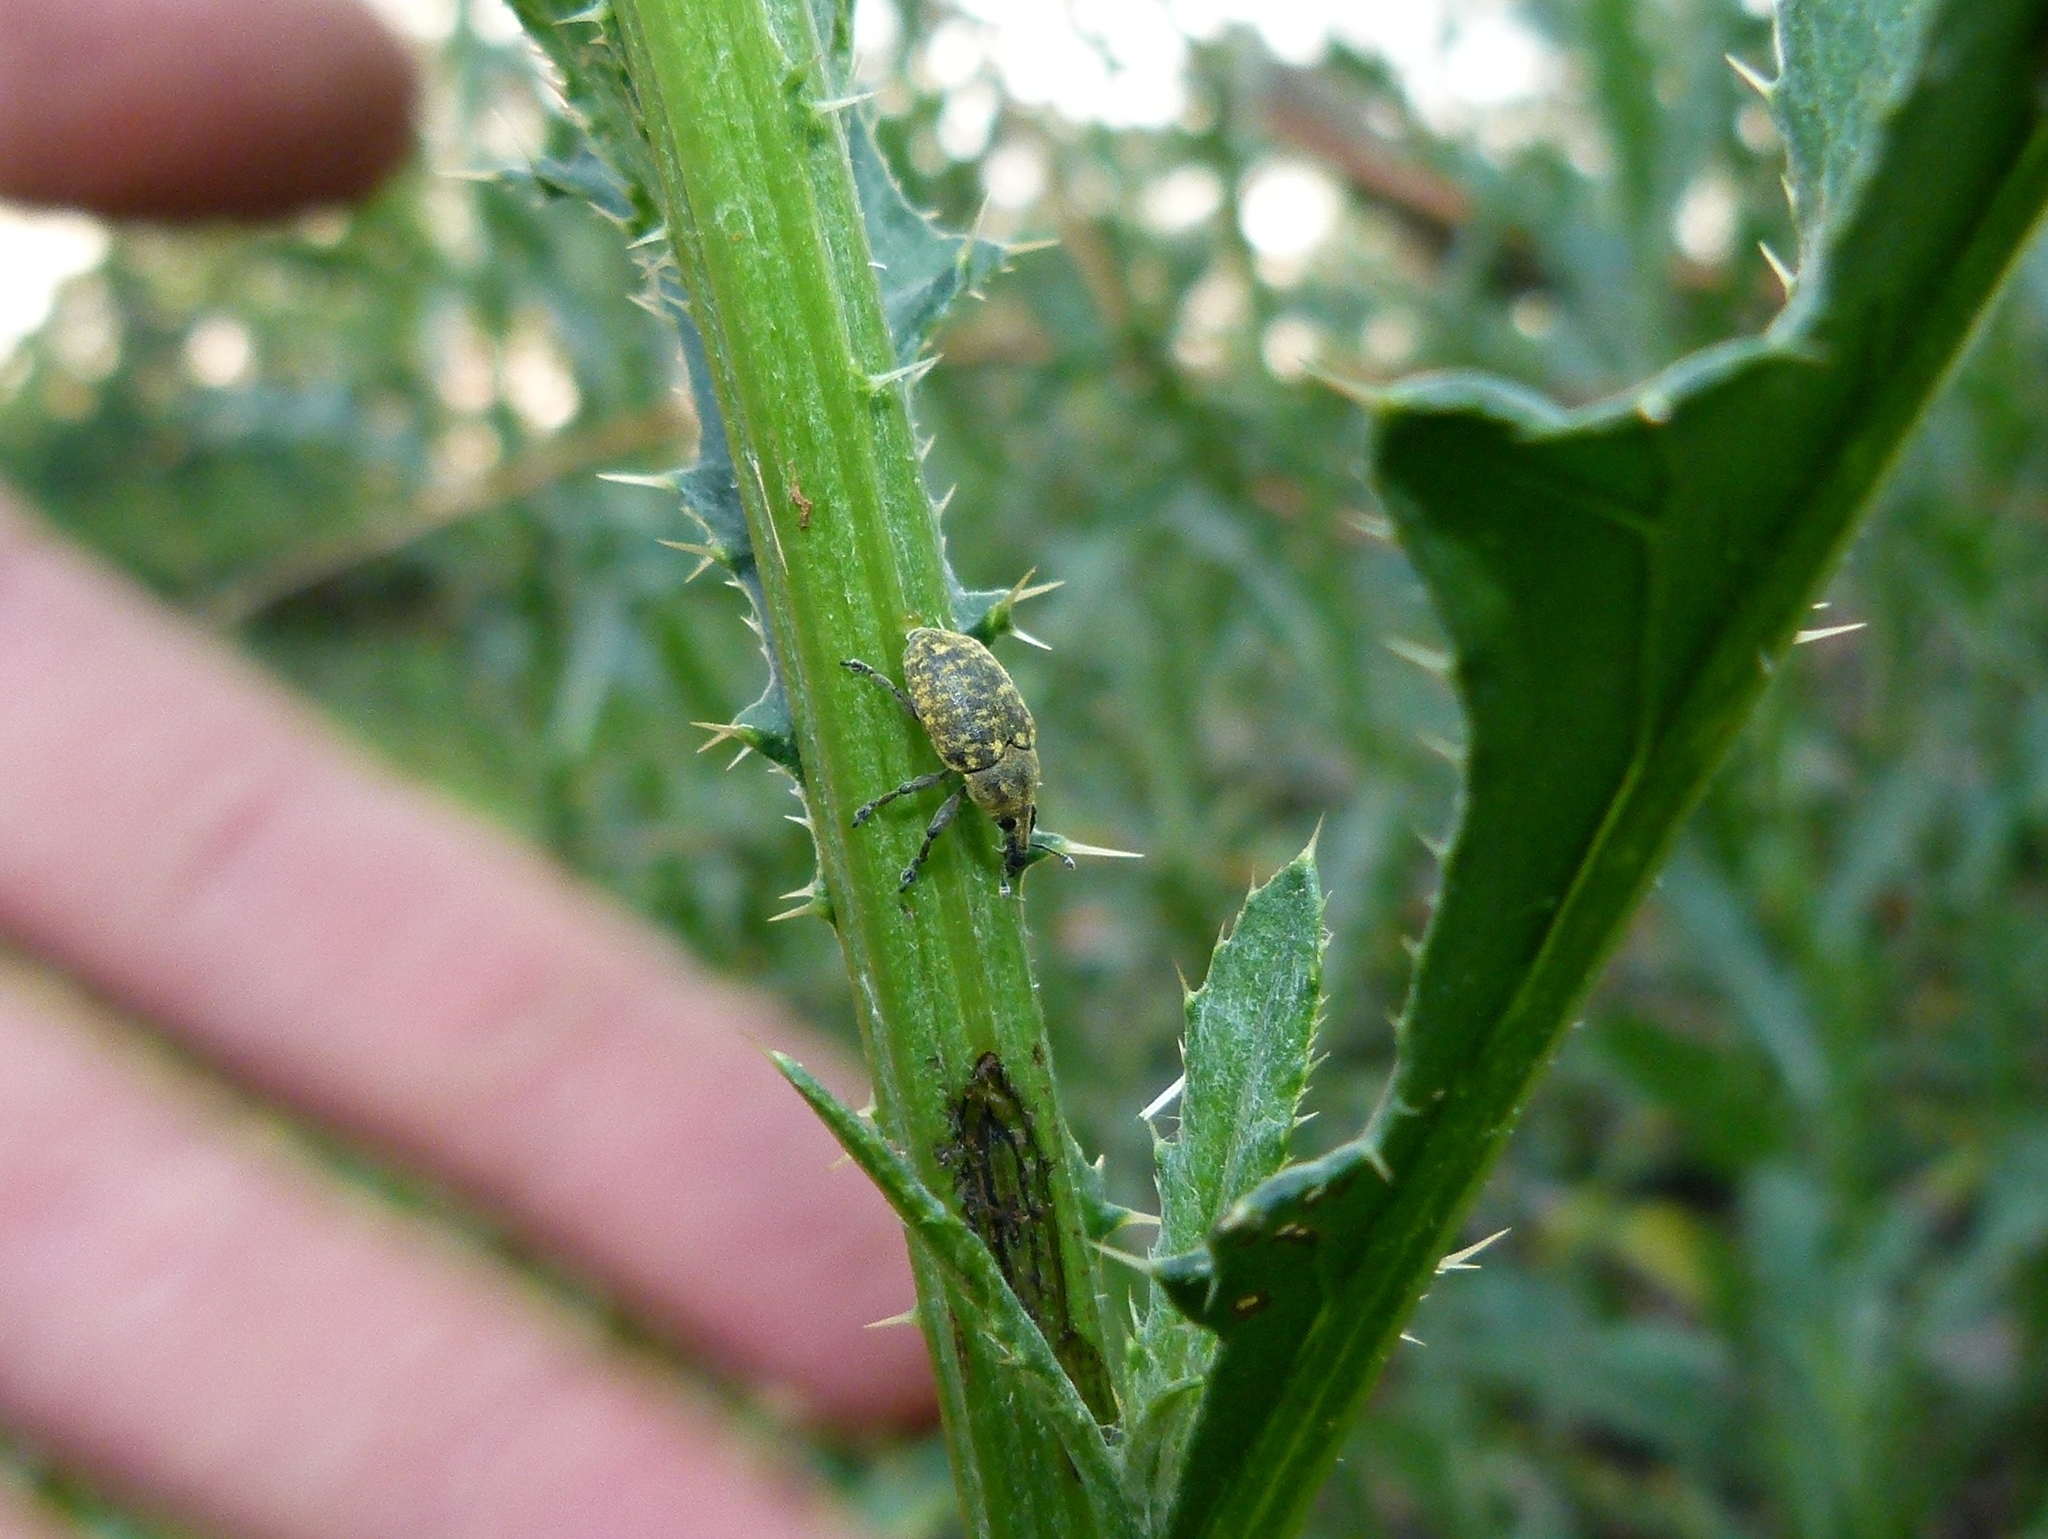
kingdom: Animalia
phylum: Arthropoda
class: Insecta
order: Coleoptera
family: Curculionidae
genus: Larinus
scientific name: Larinus turbinatus
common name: Weevil
